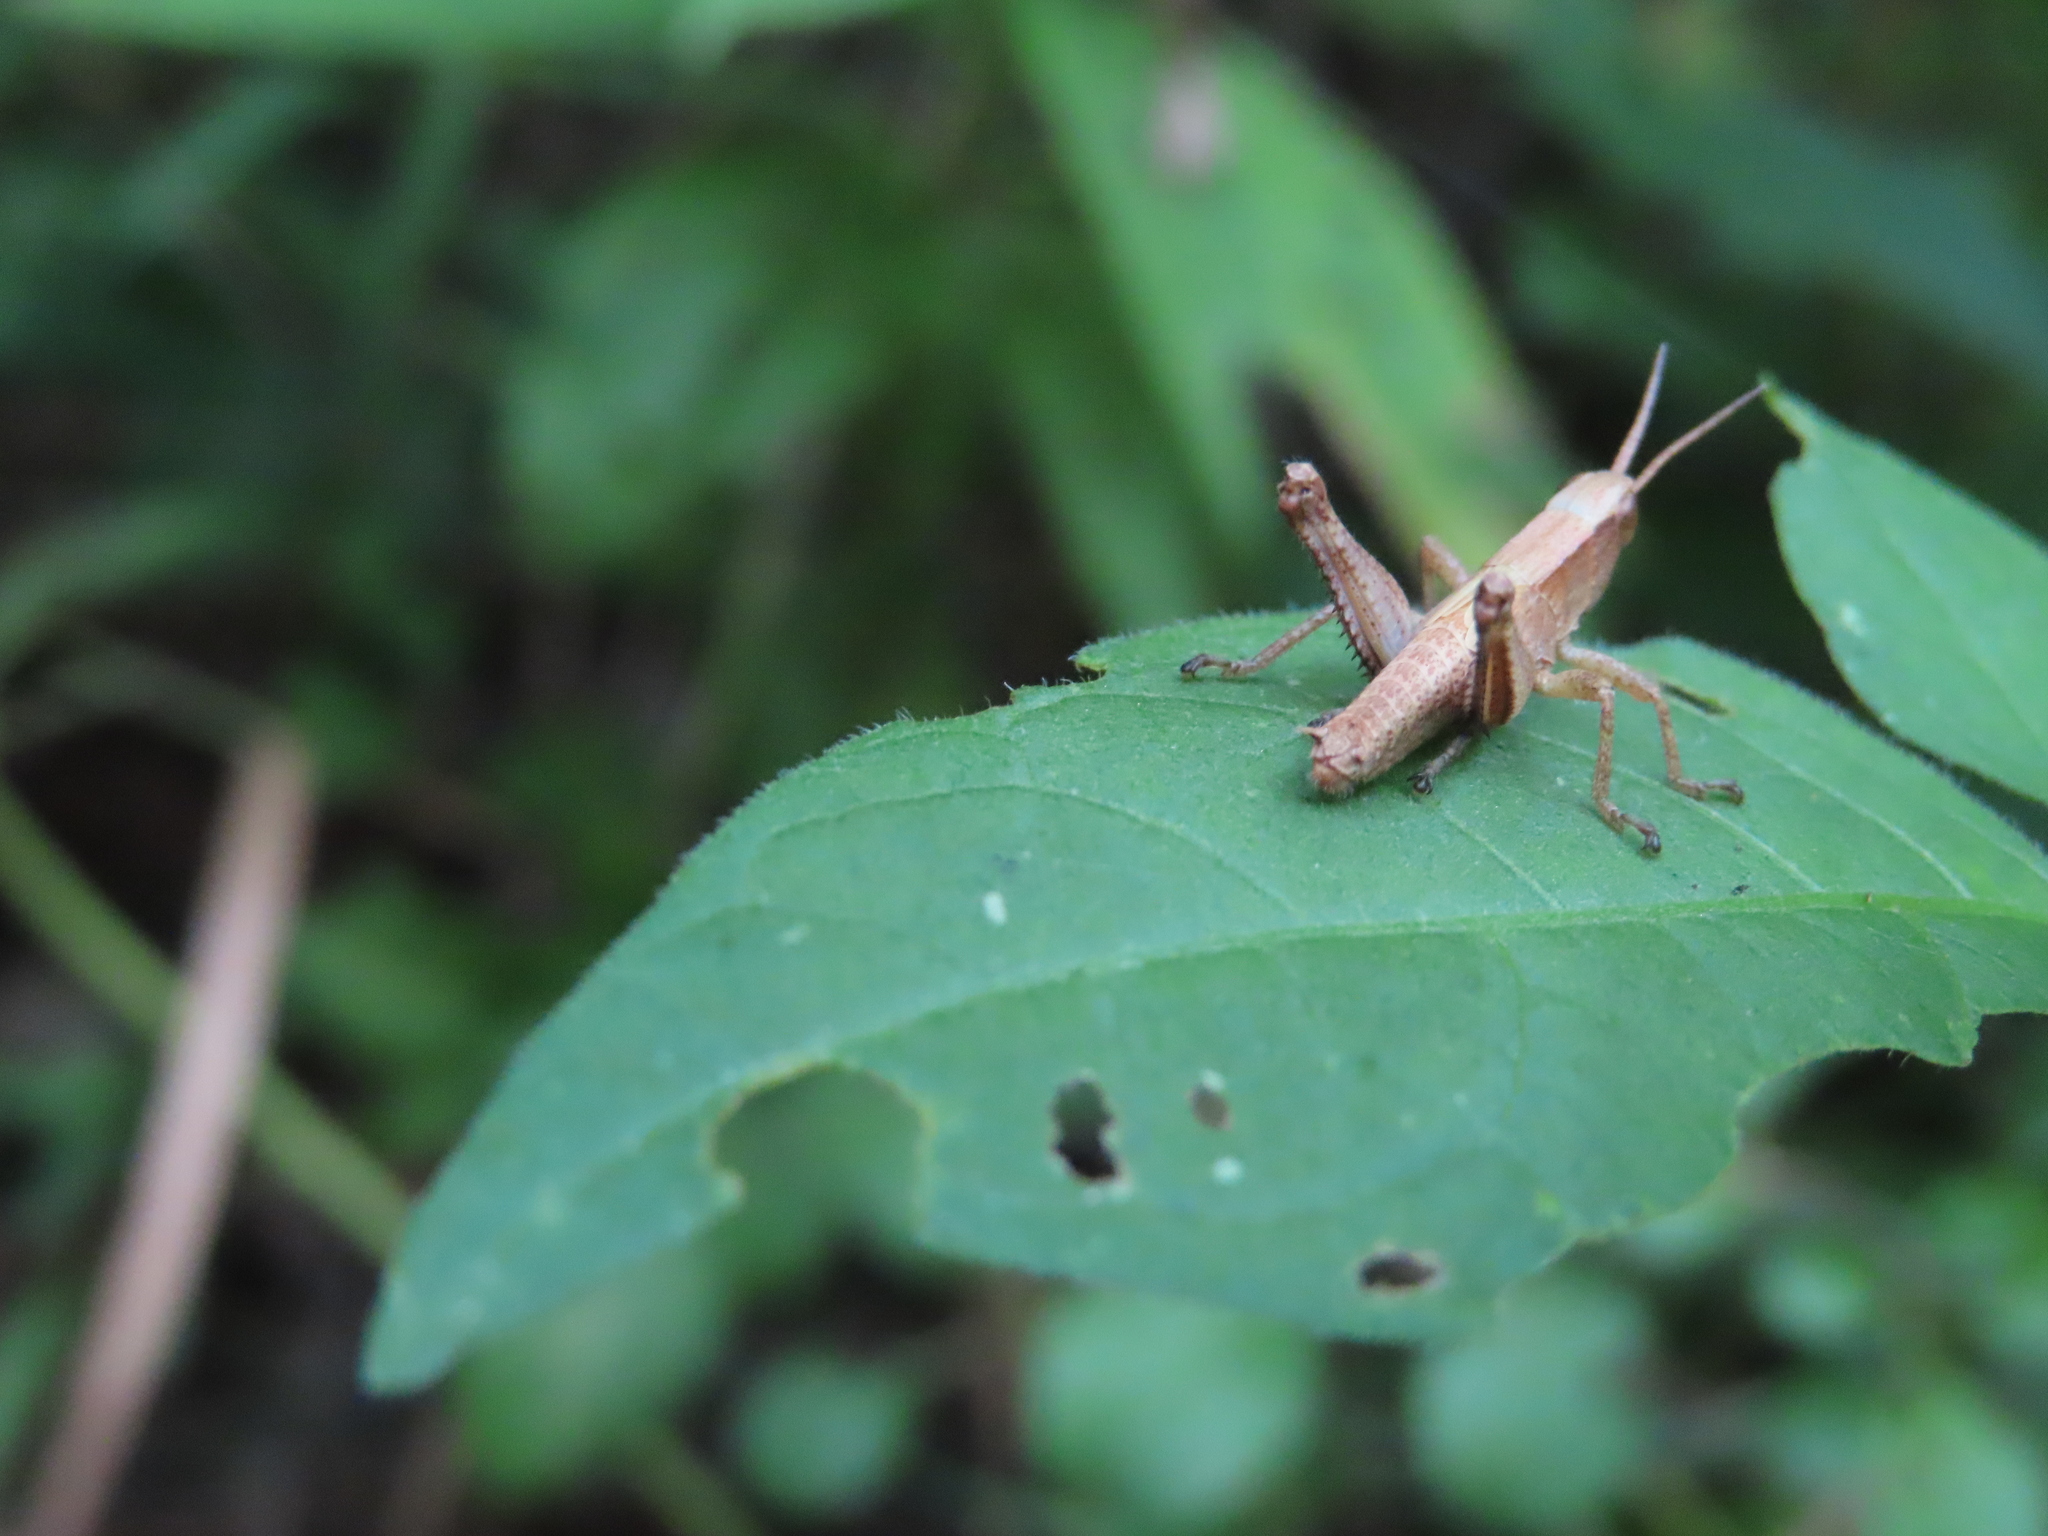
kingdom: Animalia
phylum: Arthropoda
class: Insecta
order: Orthoptera
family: Acrididae
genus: Dichromorpha
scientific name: Dichromorpha viridis
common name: Short-winged green grasshopper
